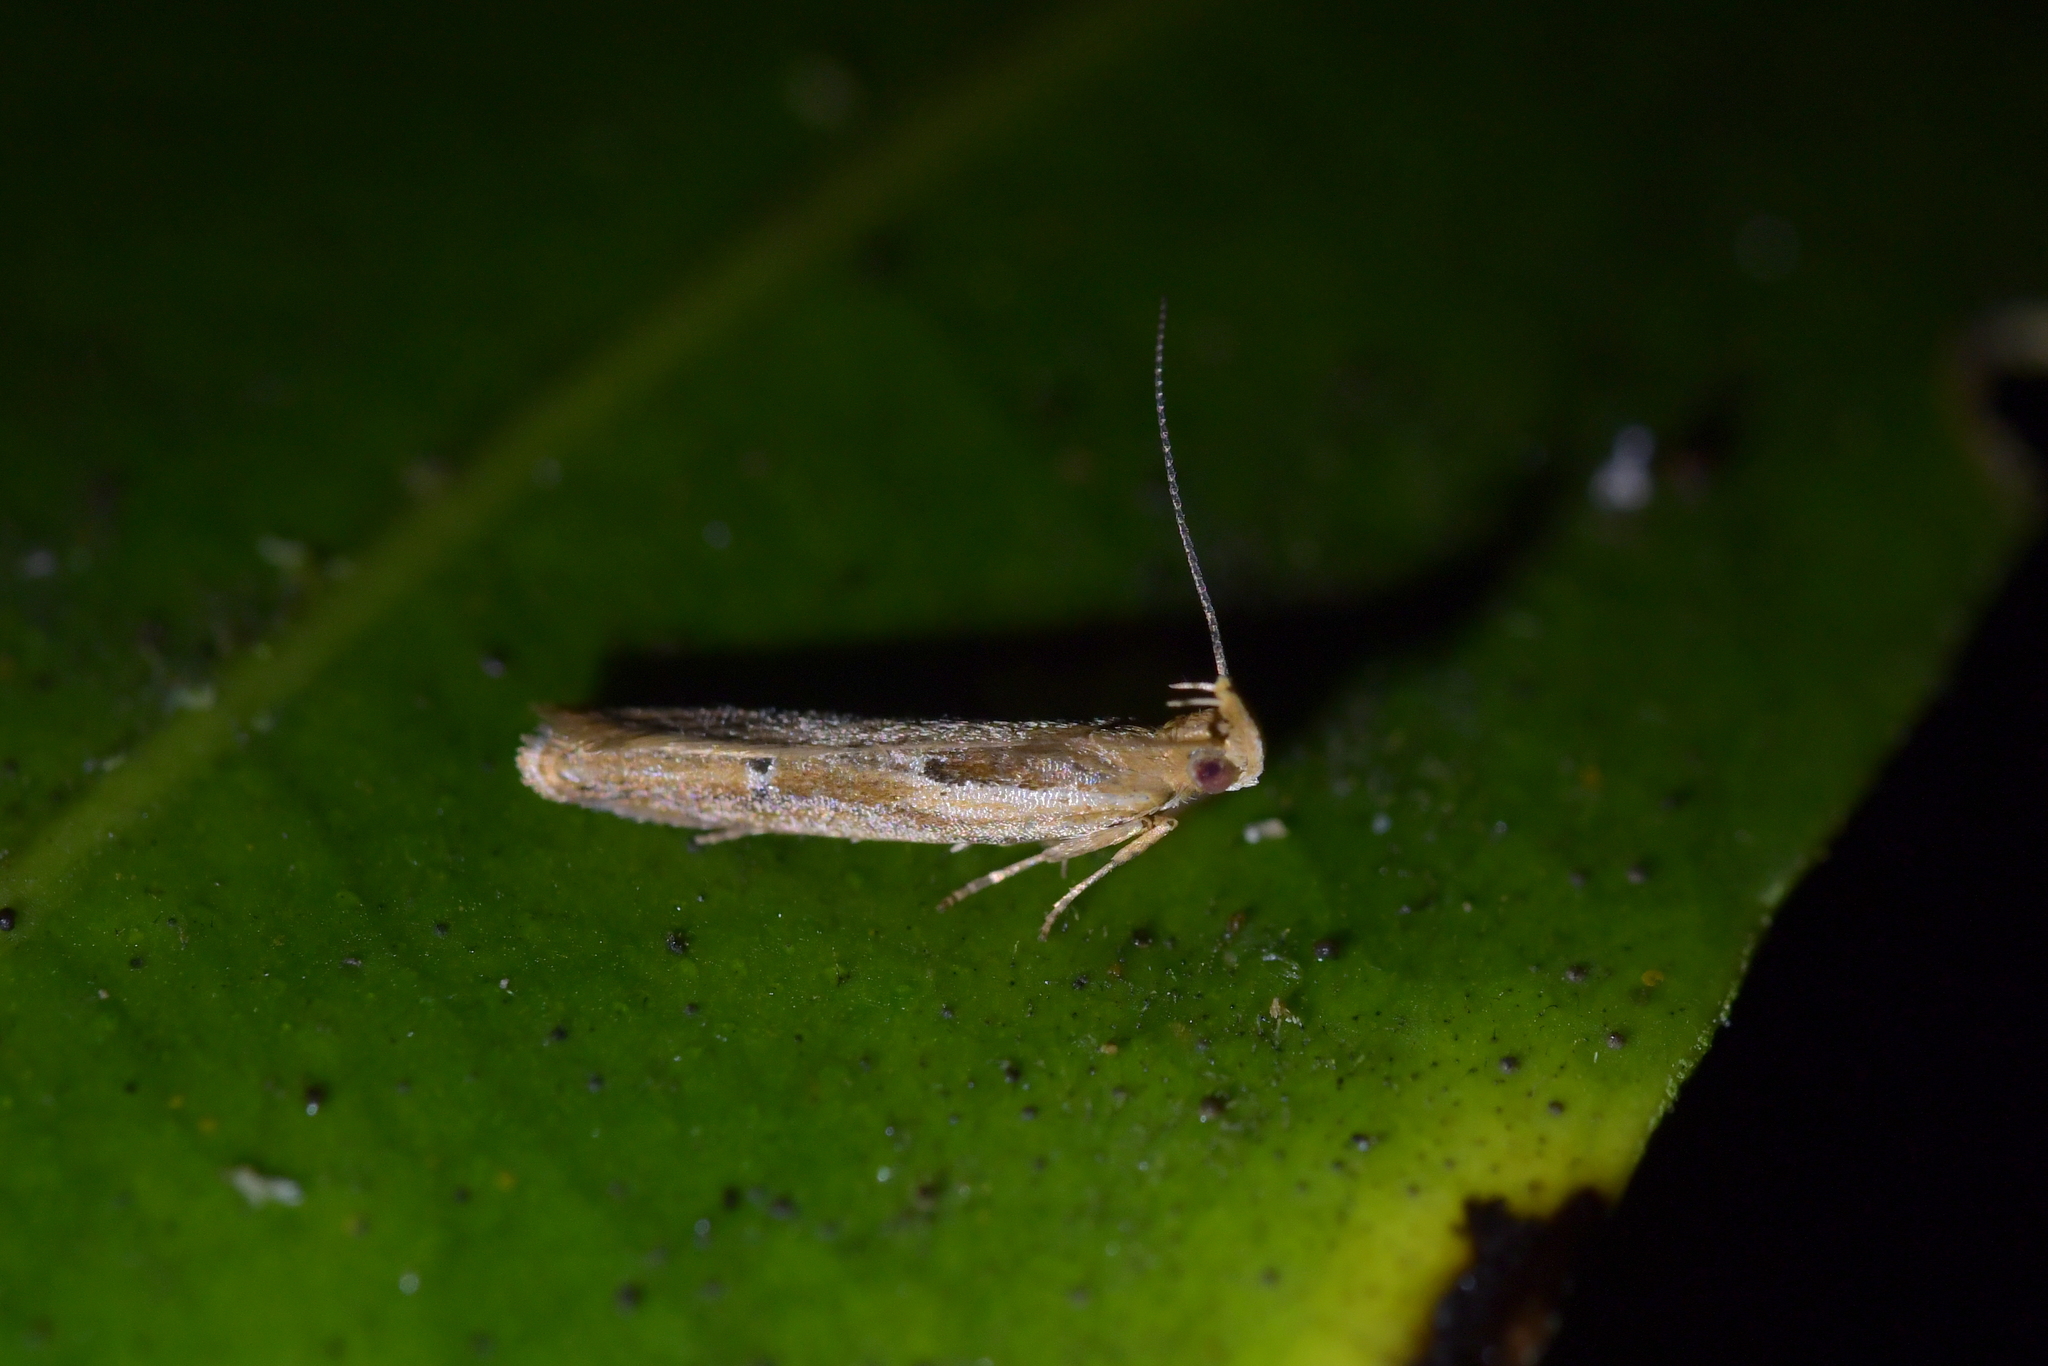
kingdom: Animalia
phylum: Arthropoda
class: Insecta
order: Lepidoptera
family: Depressariidae
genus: Eutorna
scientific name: Eutorna symmorpha
